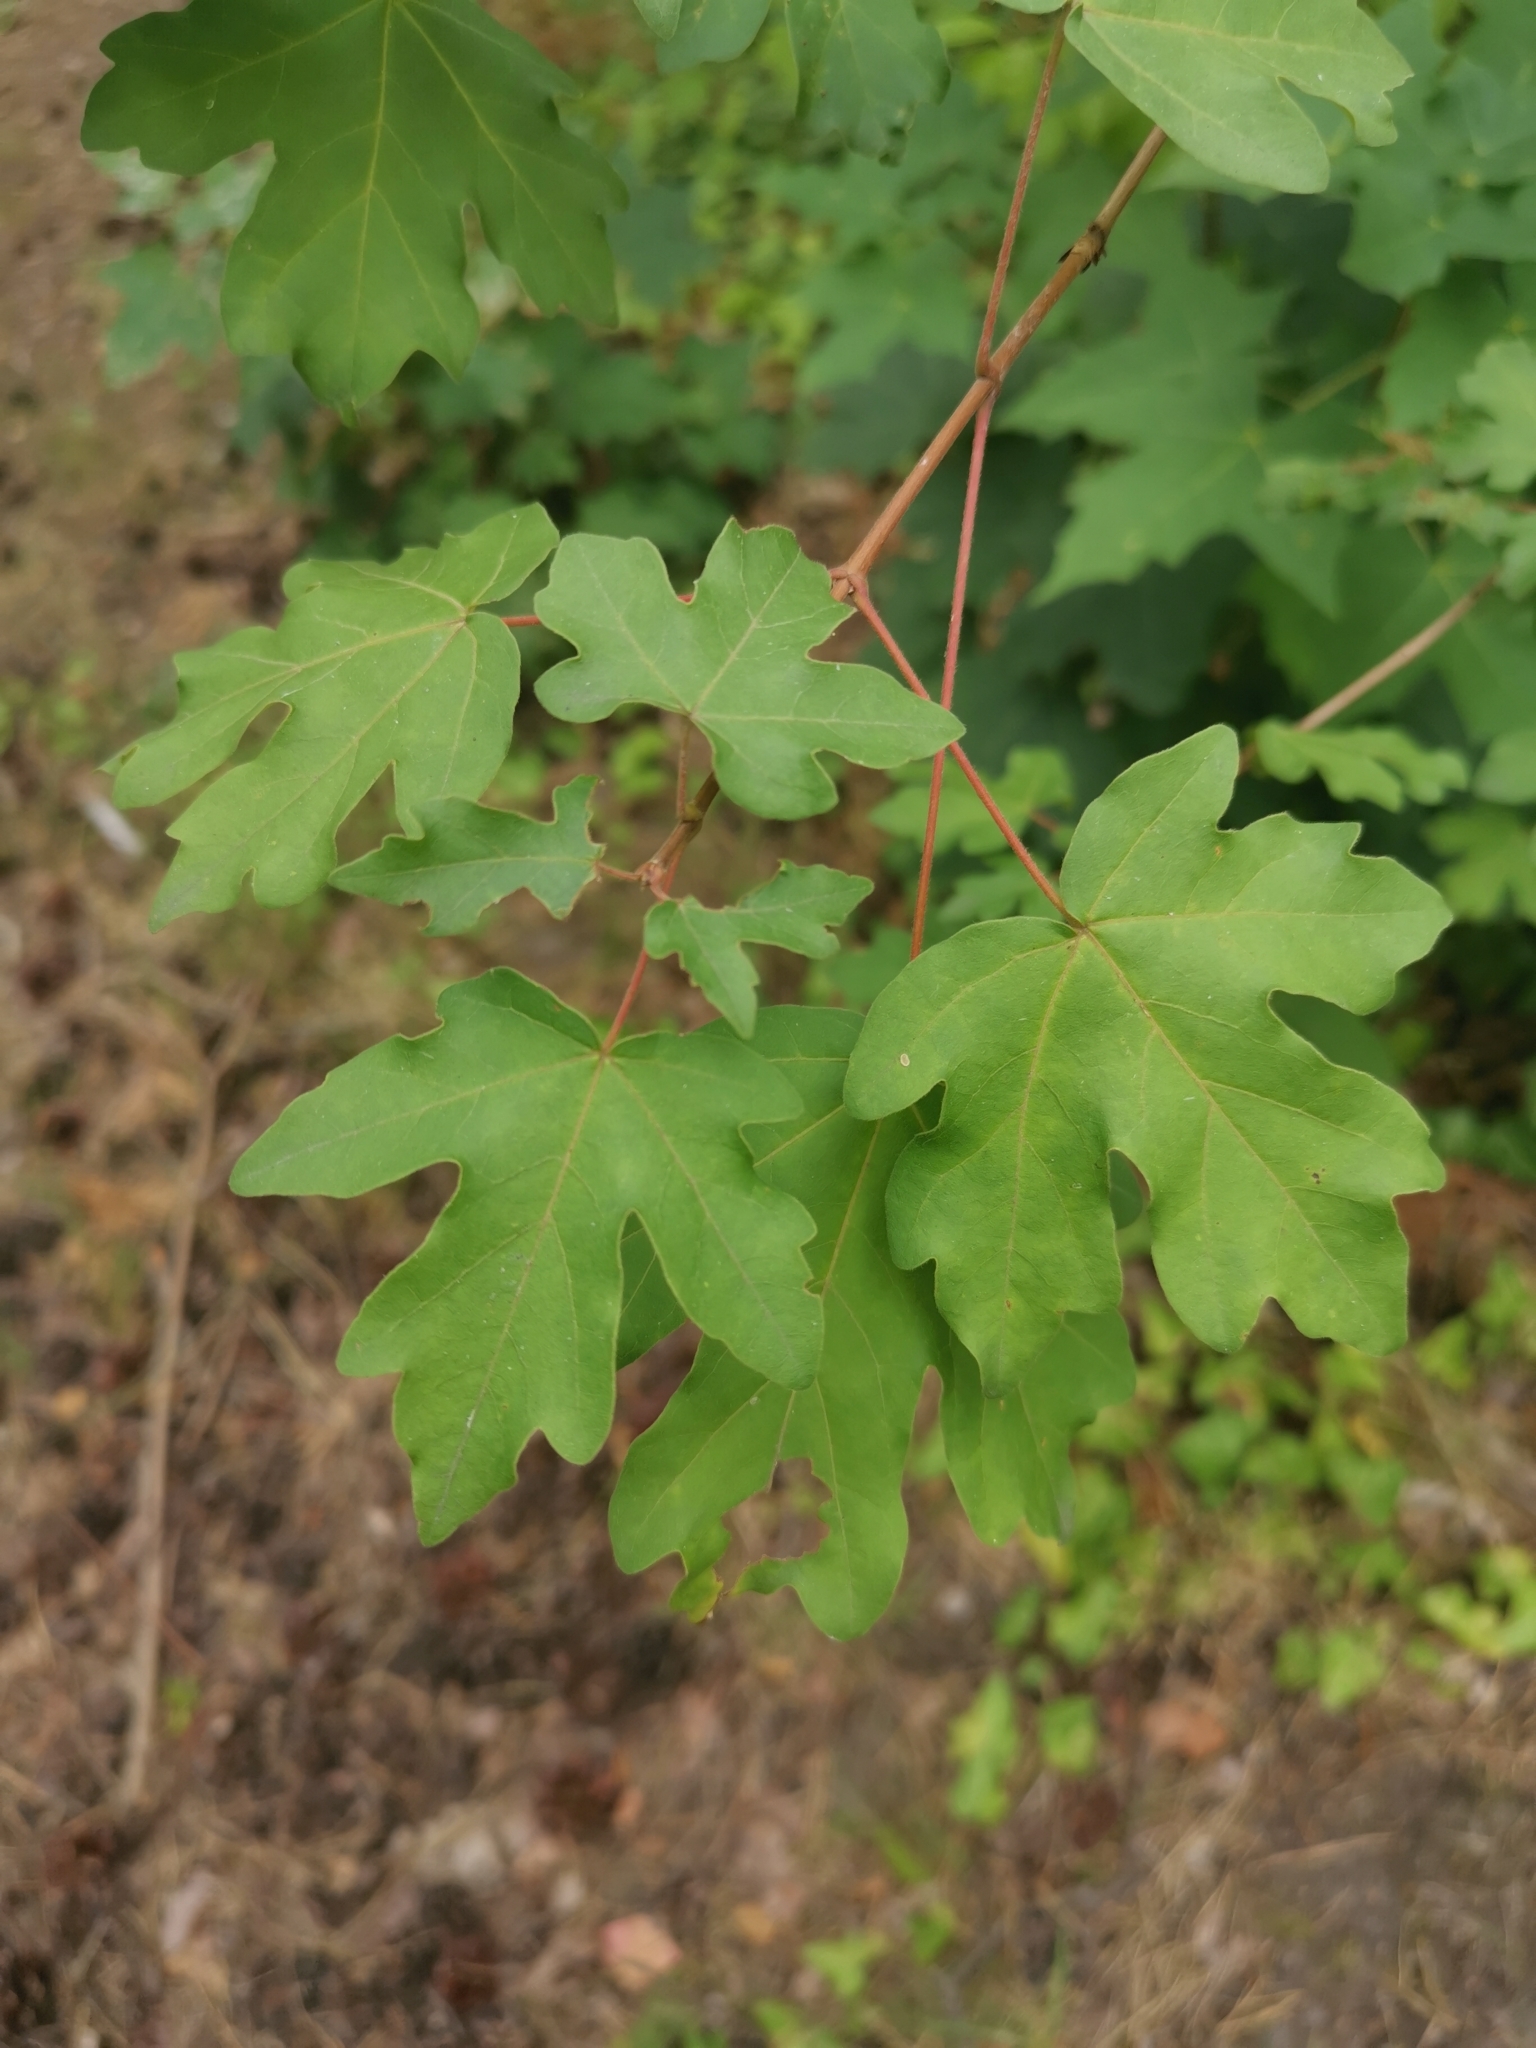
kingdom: Plantae
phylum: Tracheophyta
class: Magnoliopsida
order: Sapindales
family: Sapindaceae
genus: Acer
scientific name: Acer campestre
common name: Field maple
